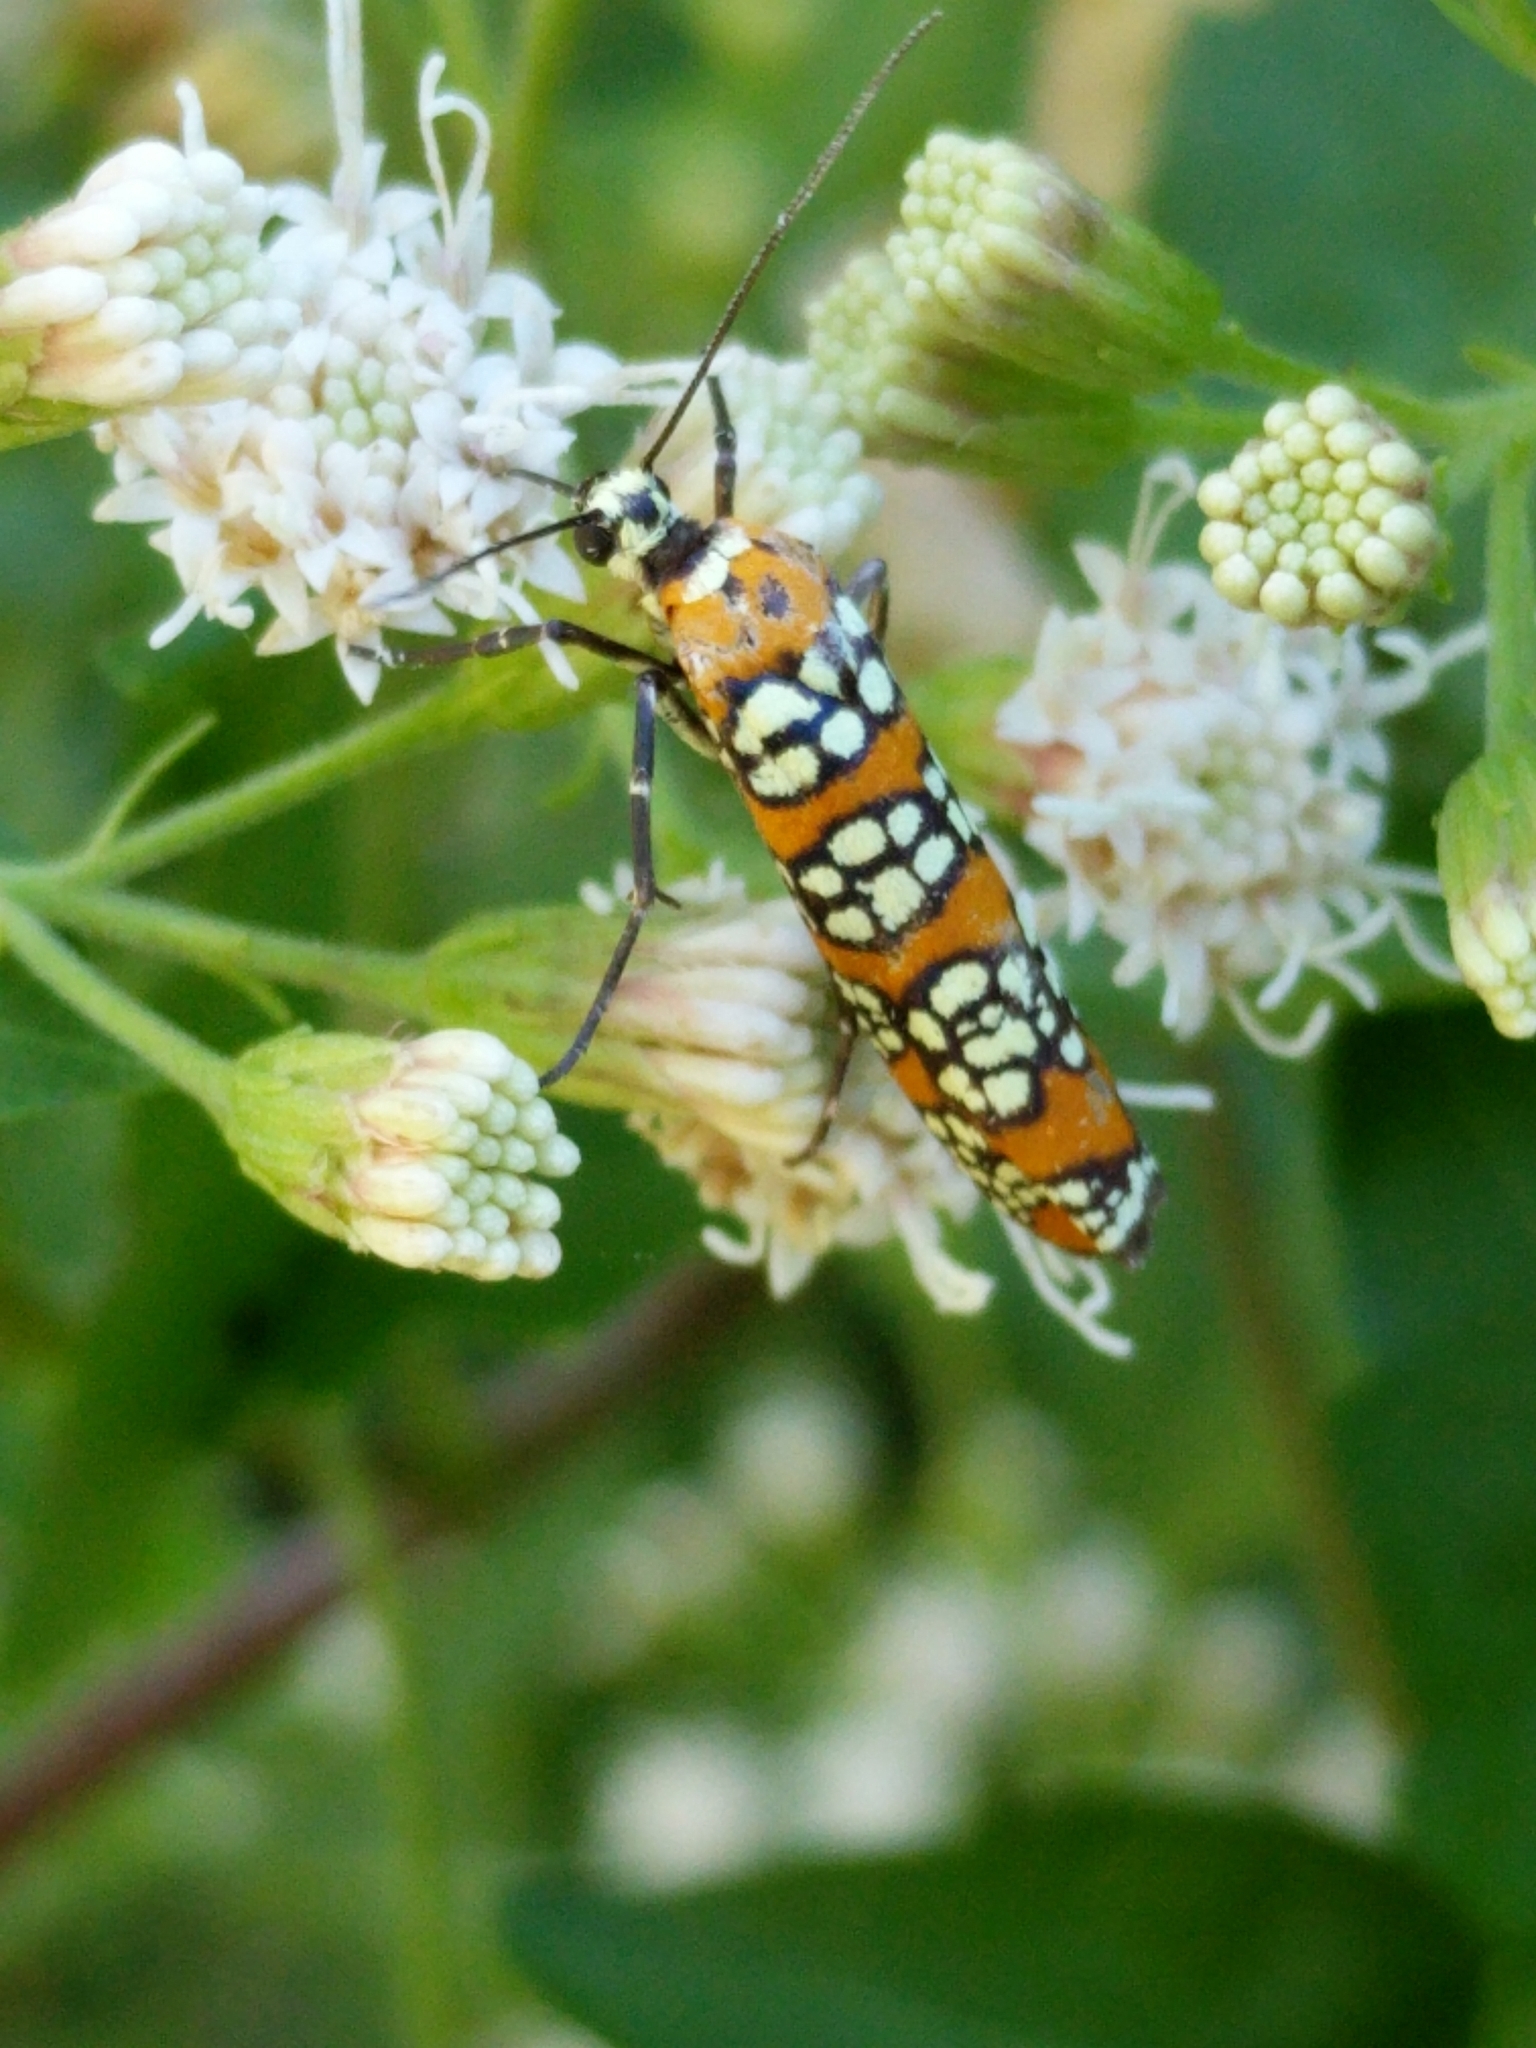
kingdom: Animalia
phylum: Arthropoda
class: Insecta
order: Lepidoptera
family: Attevidae
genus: Atteva
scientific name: Atteva punctella
